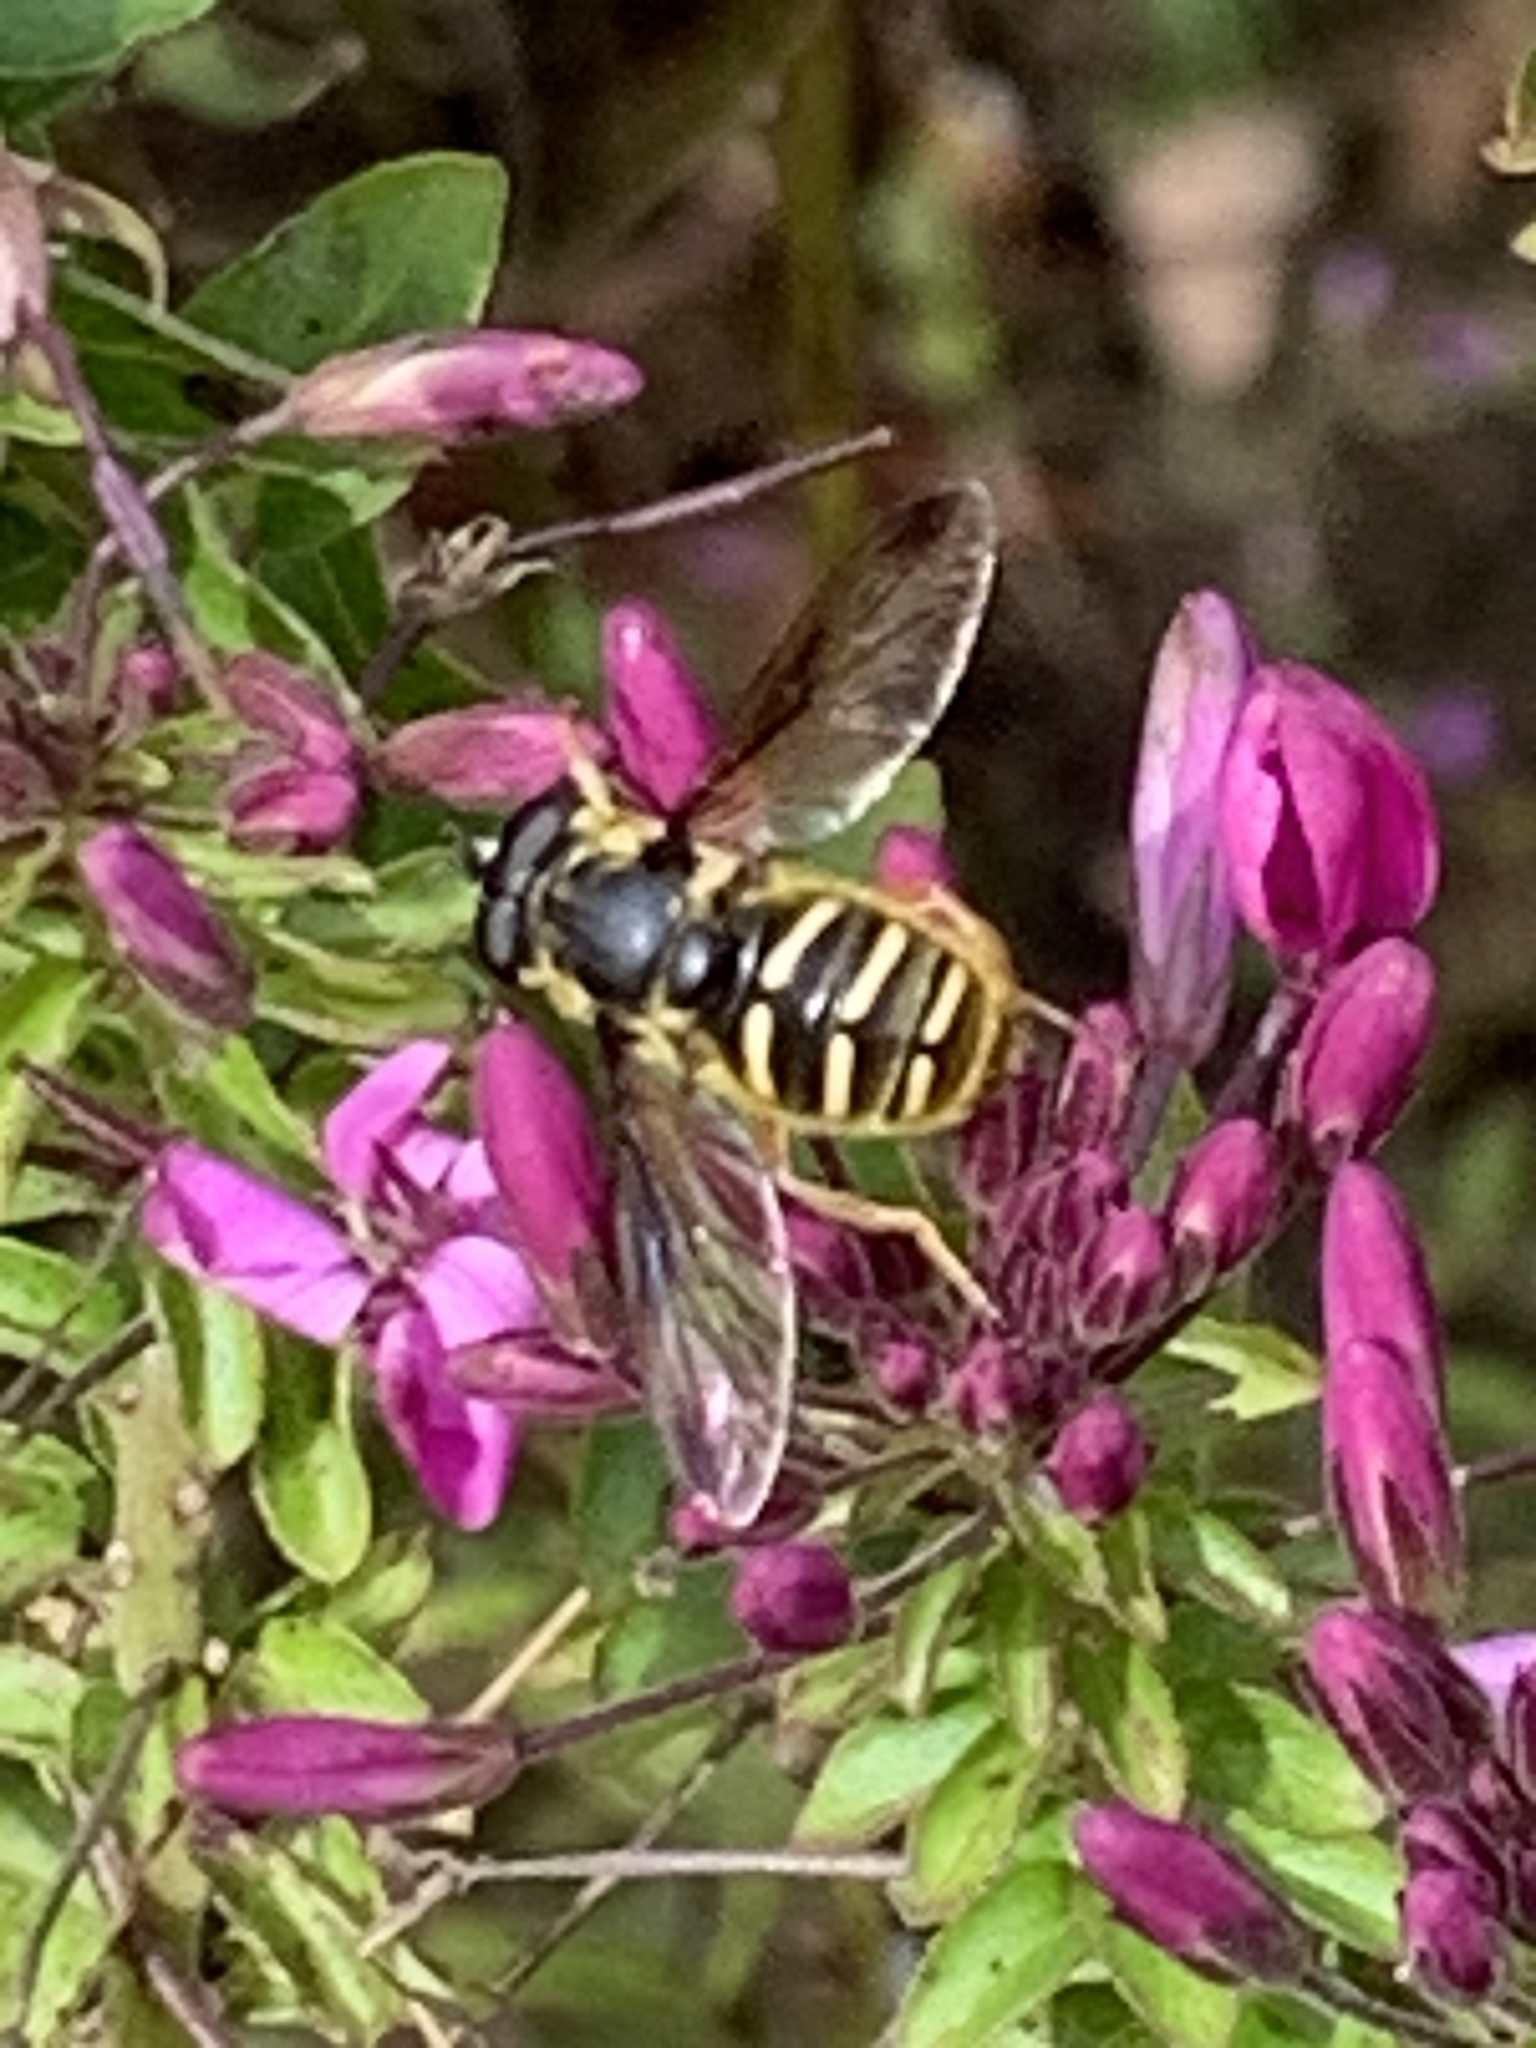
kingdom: Animalia
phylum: Arthropoda
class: Insecta
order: Diptera
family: Syrphidae
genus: Sericomyia
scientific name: Sericomyia chrysotoxoides
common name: Oblique-banded pond fly
